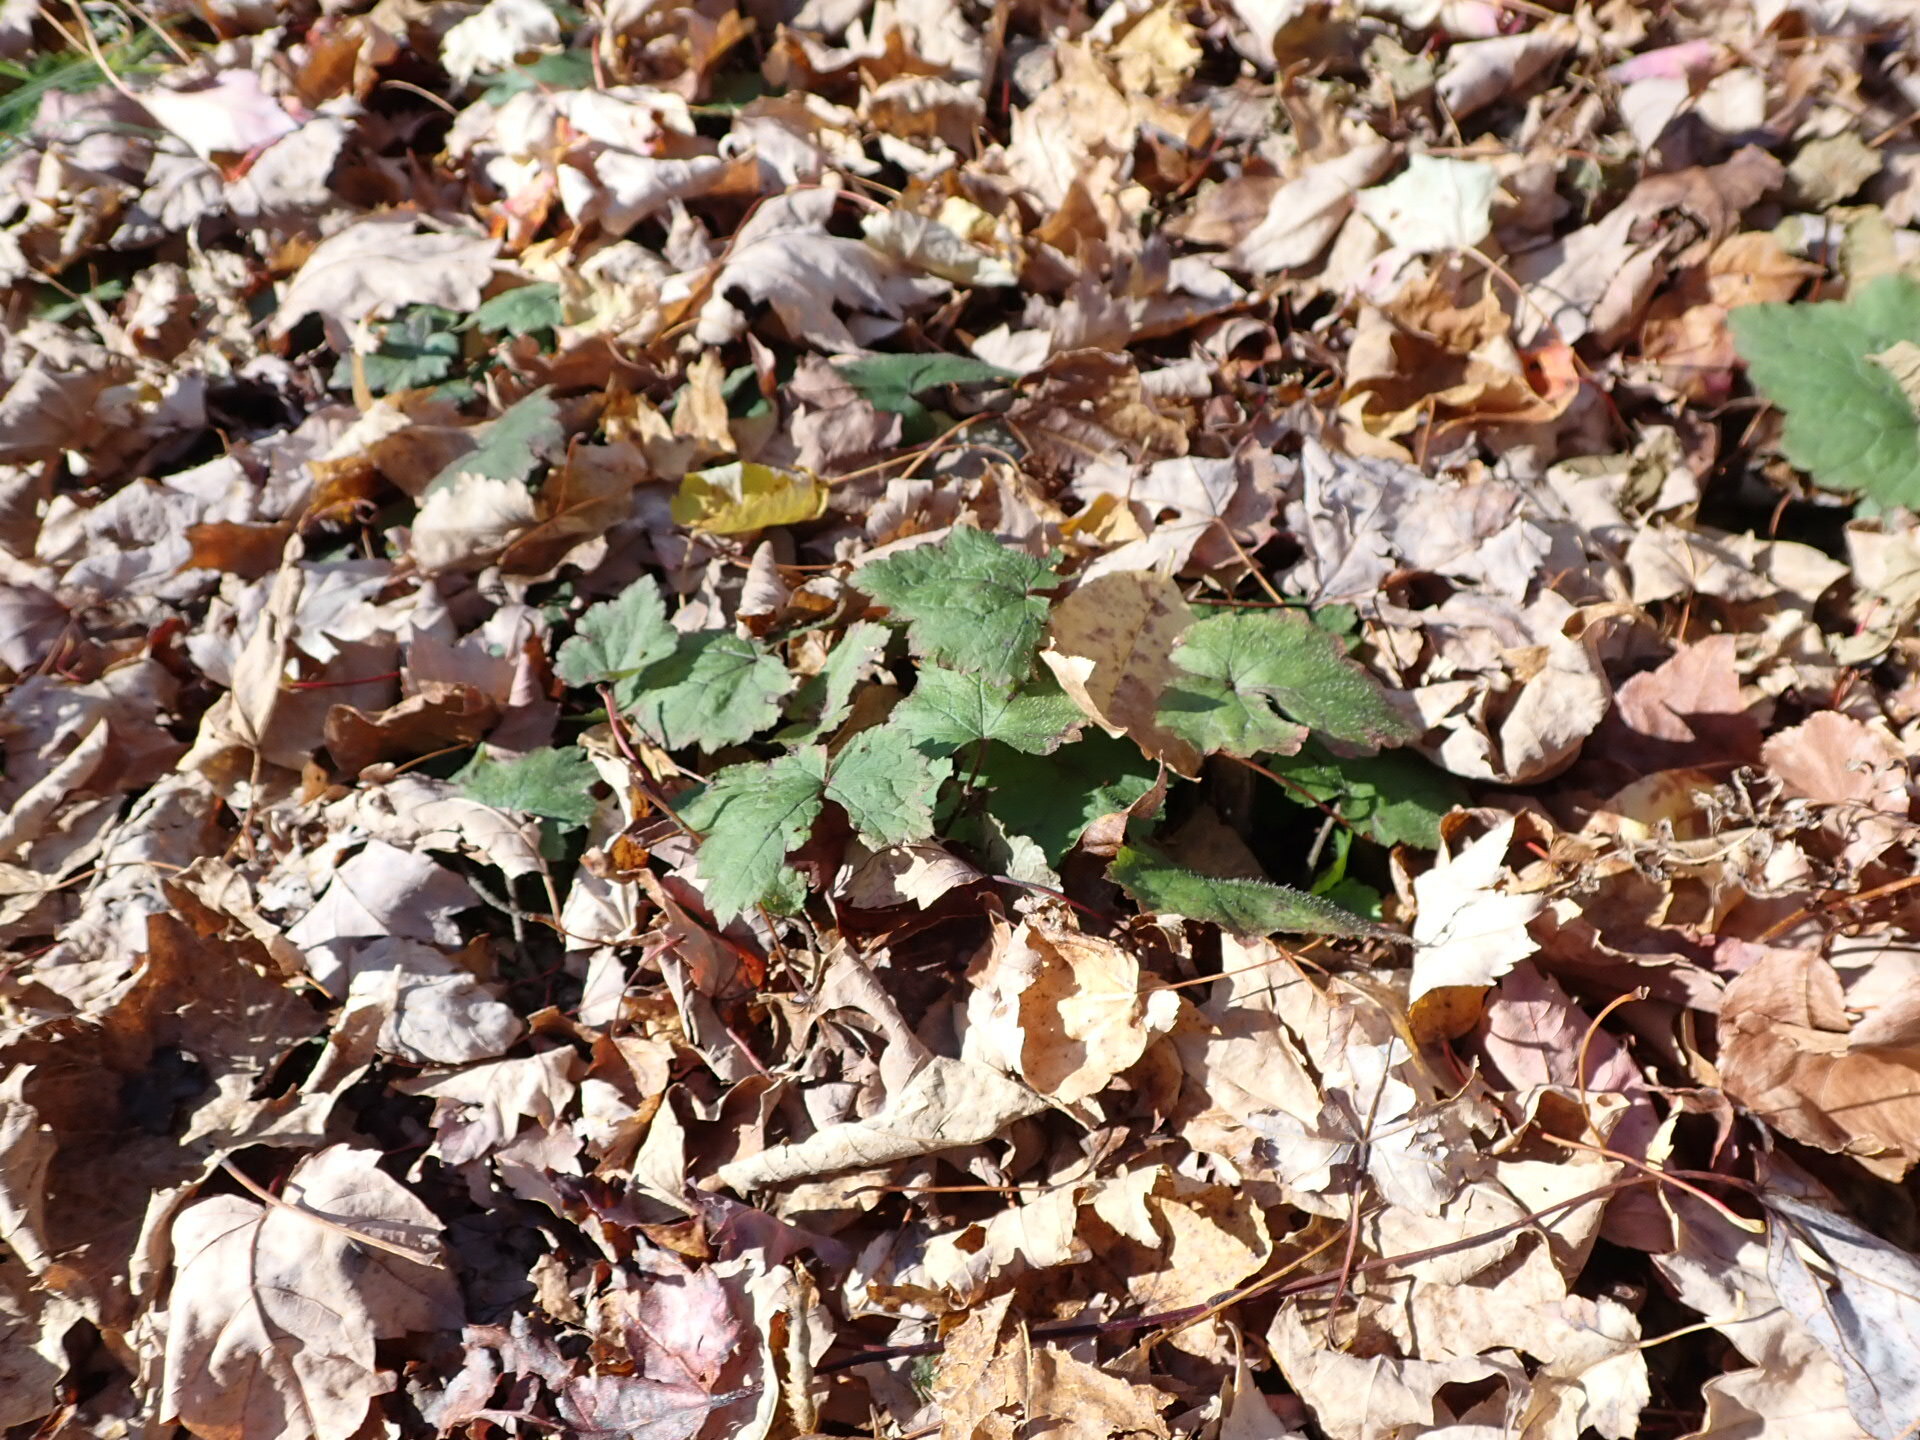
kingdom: Plantae
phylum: Tracheophyta
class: Magnoliopsida
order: Saxifragales
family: Saxifragaceae
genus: Heuchera
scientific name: Heuchera americana
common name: Alumroot
